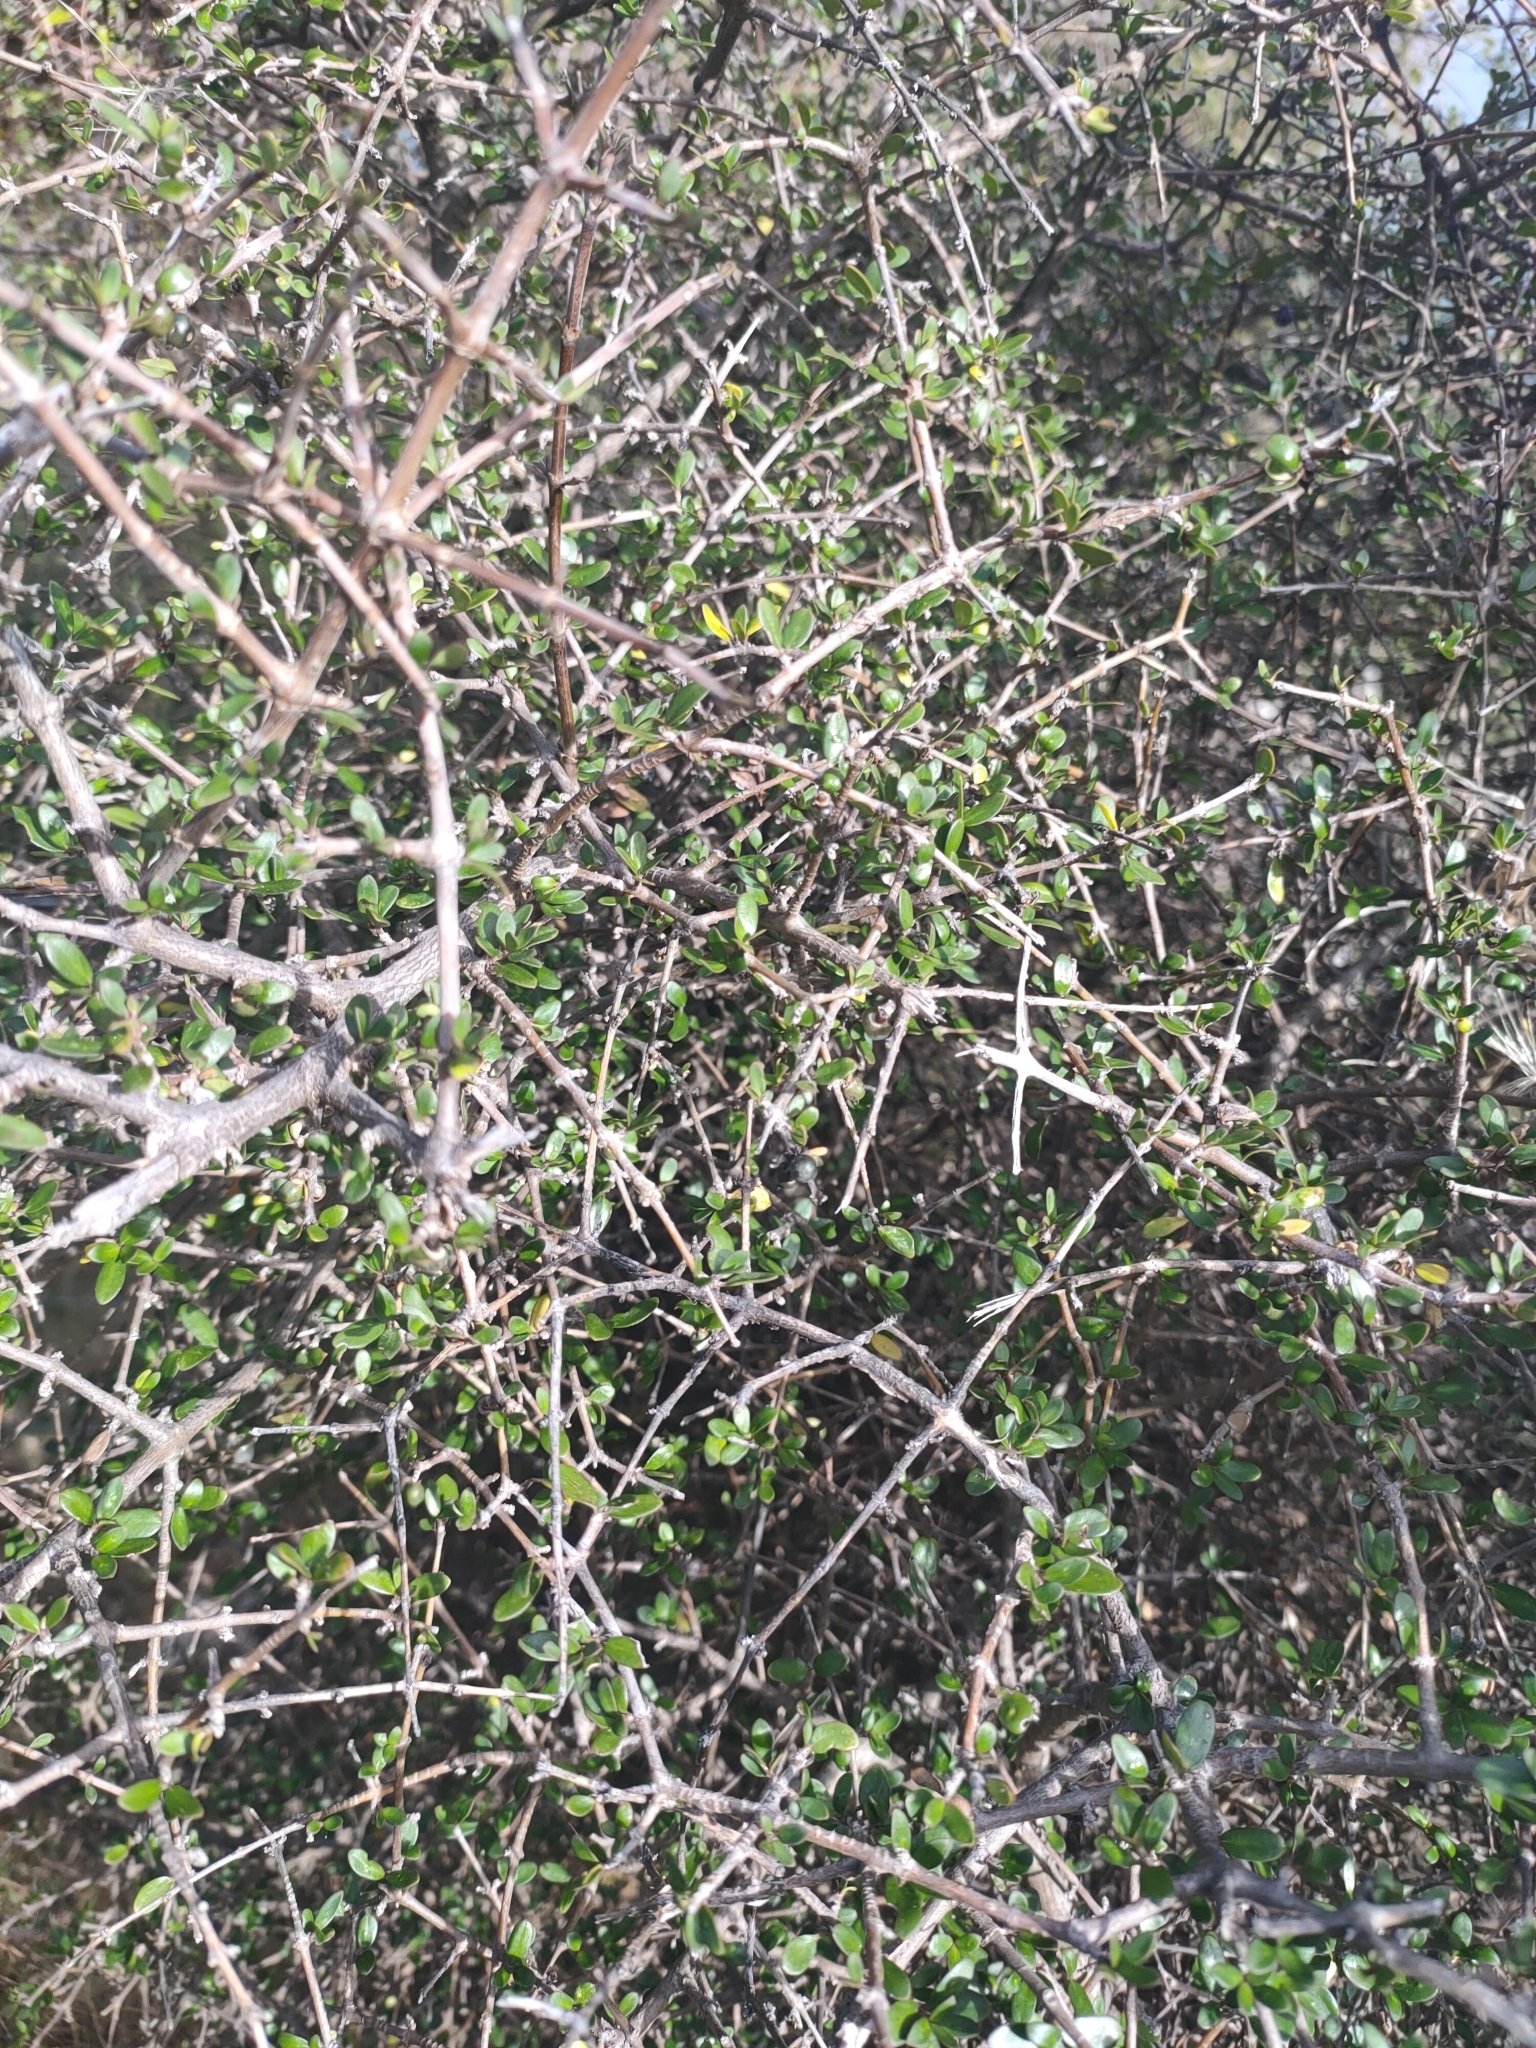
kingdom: Plantae
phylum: Tracheophyta
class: Magnoliopsida
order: Gentianales
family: Rubiaceae
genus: Coprosma
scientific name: Coprosma propinqua
